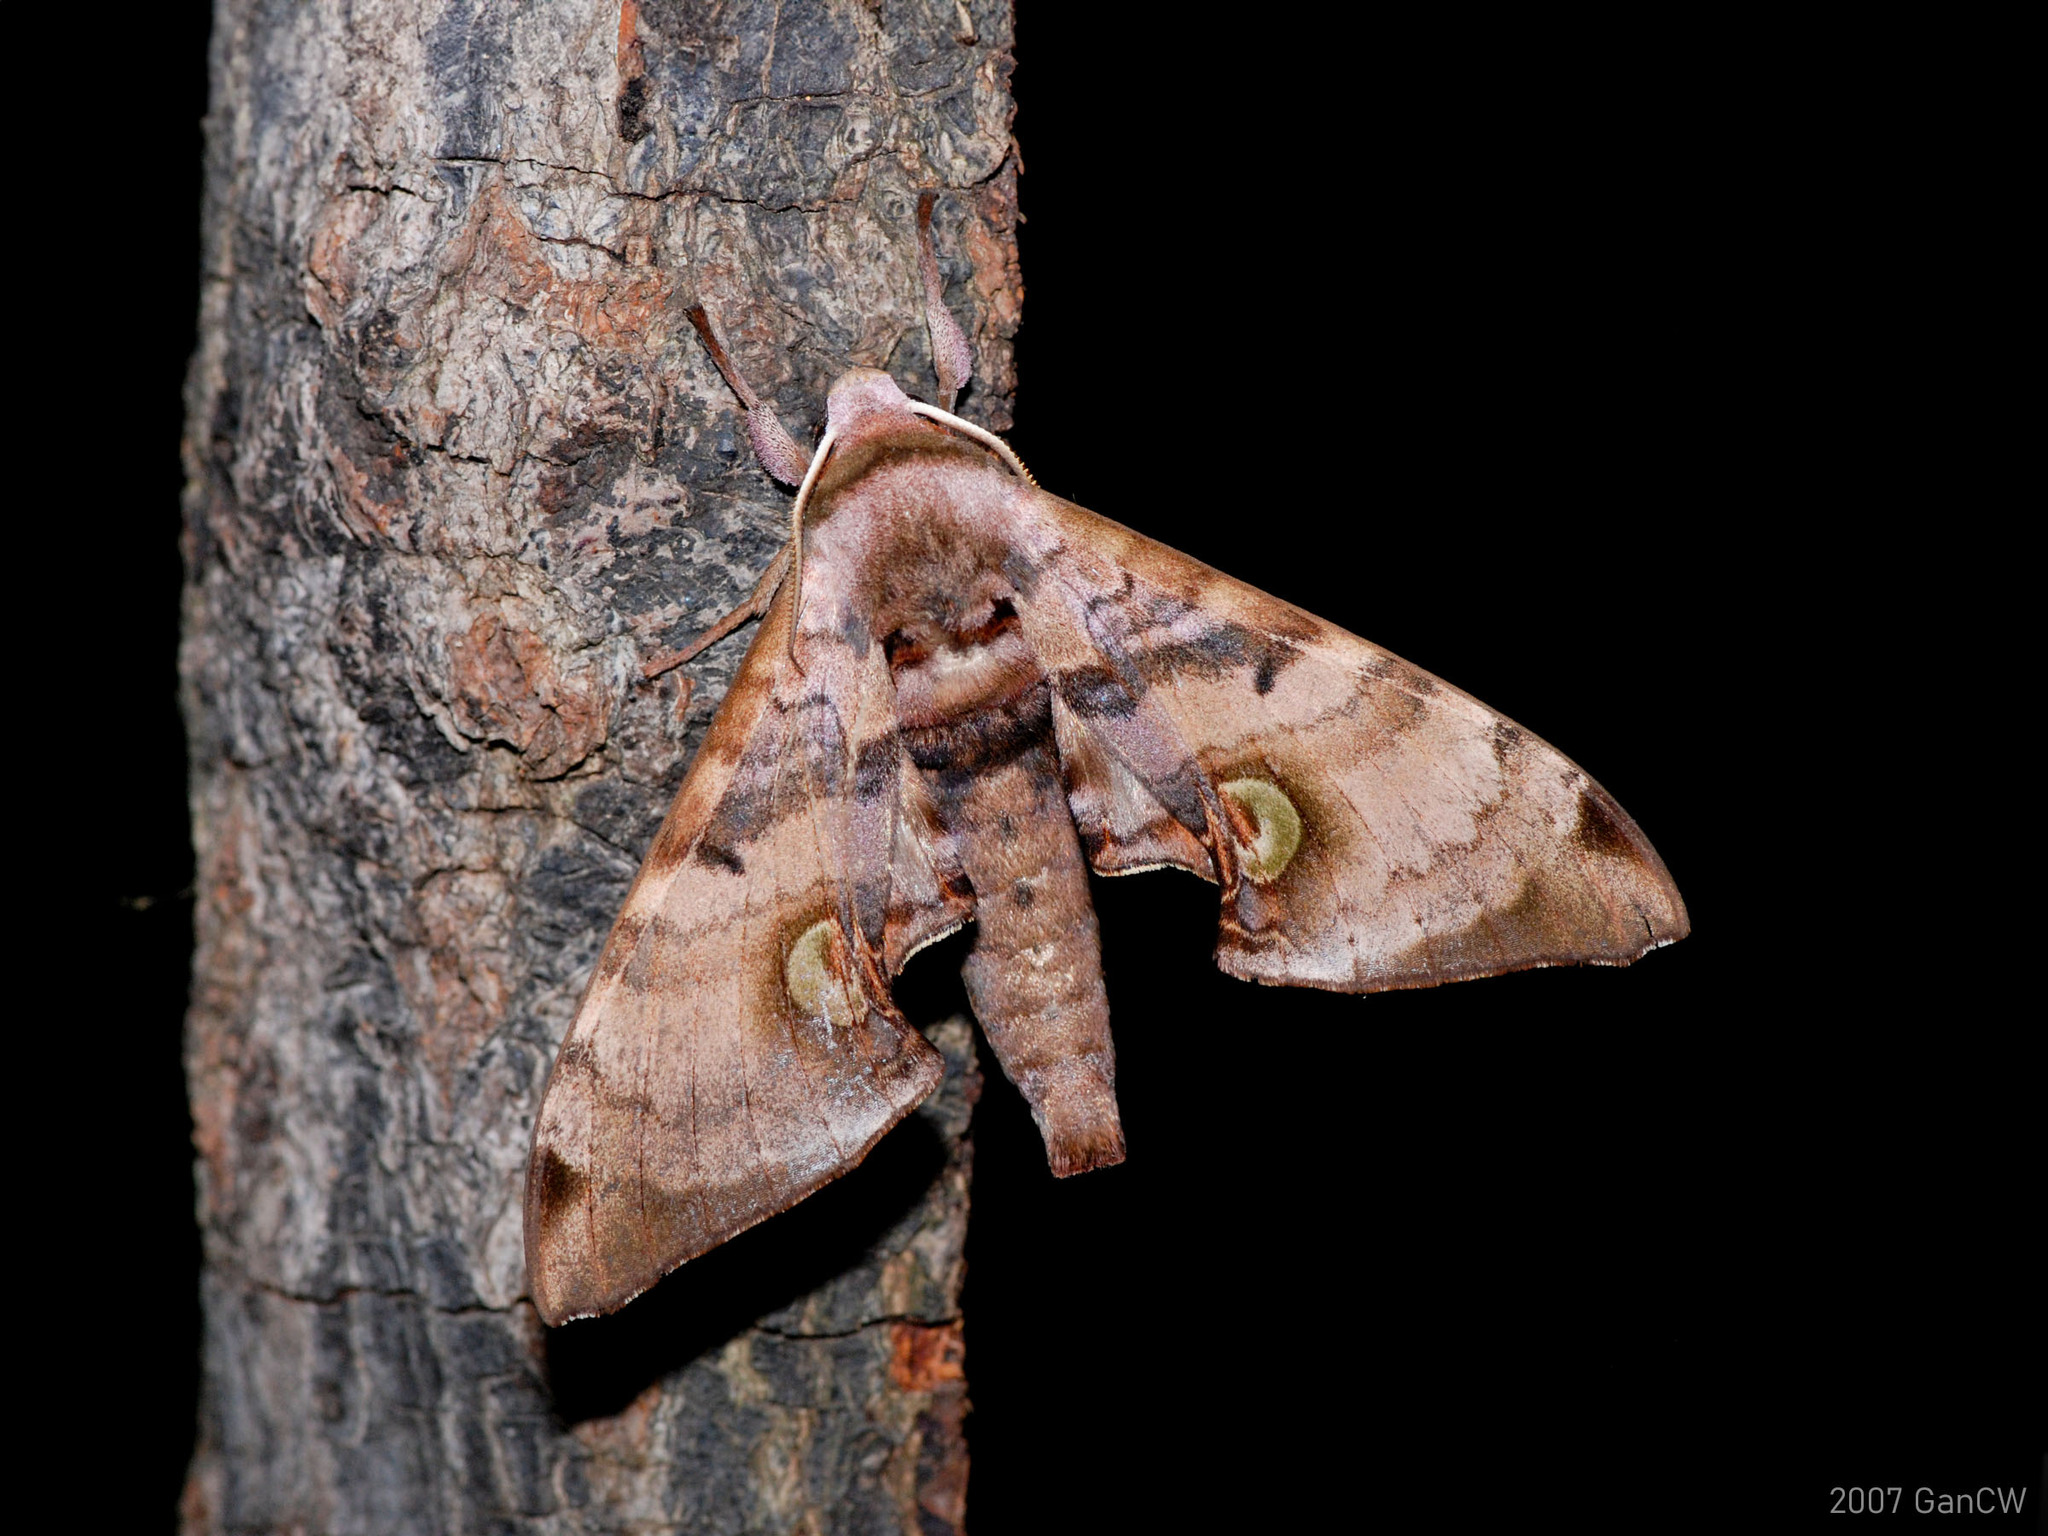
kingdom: Animalia
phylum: Arthropoda
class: Insecta
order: Lepidoptera
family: Sphingidae
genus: Daphnusa
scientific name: Daphnusa ocellaris
